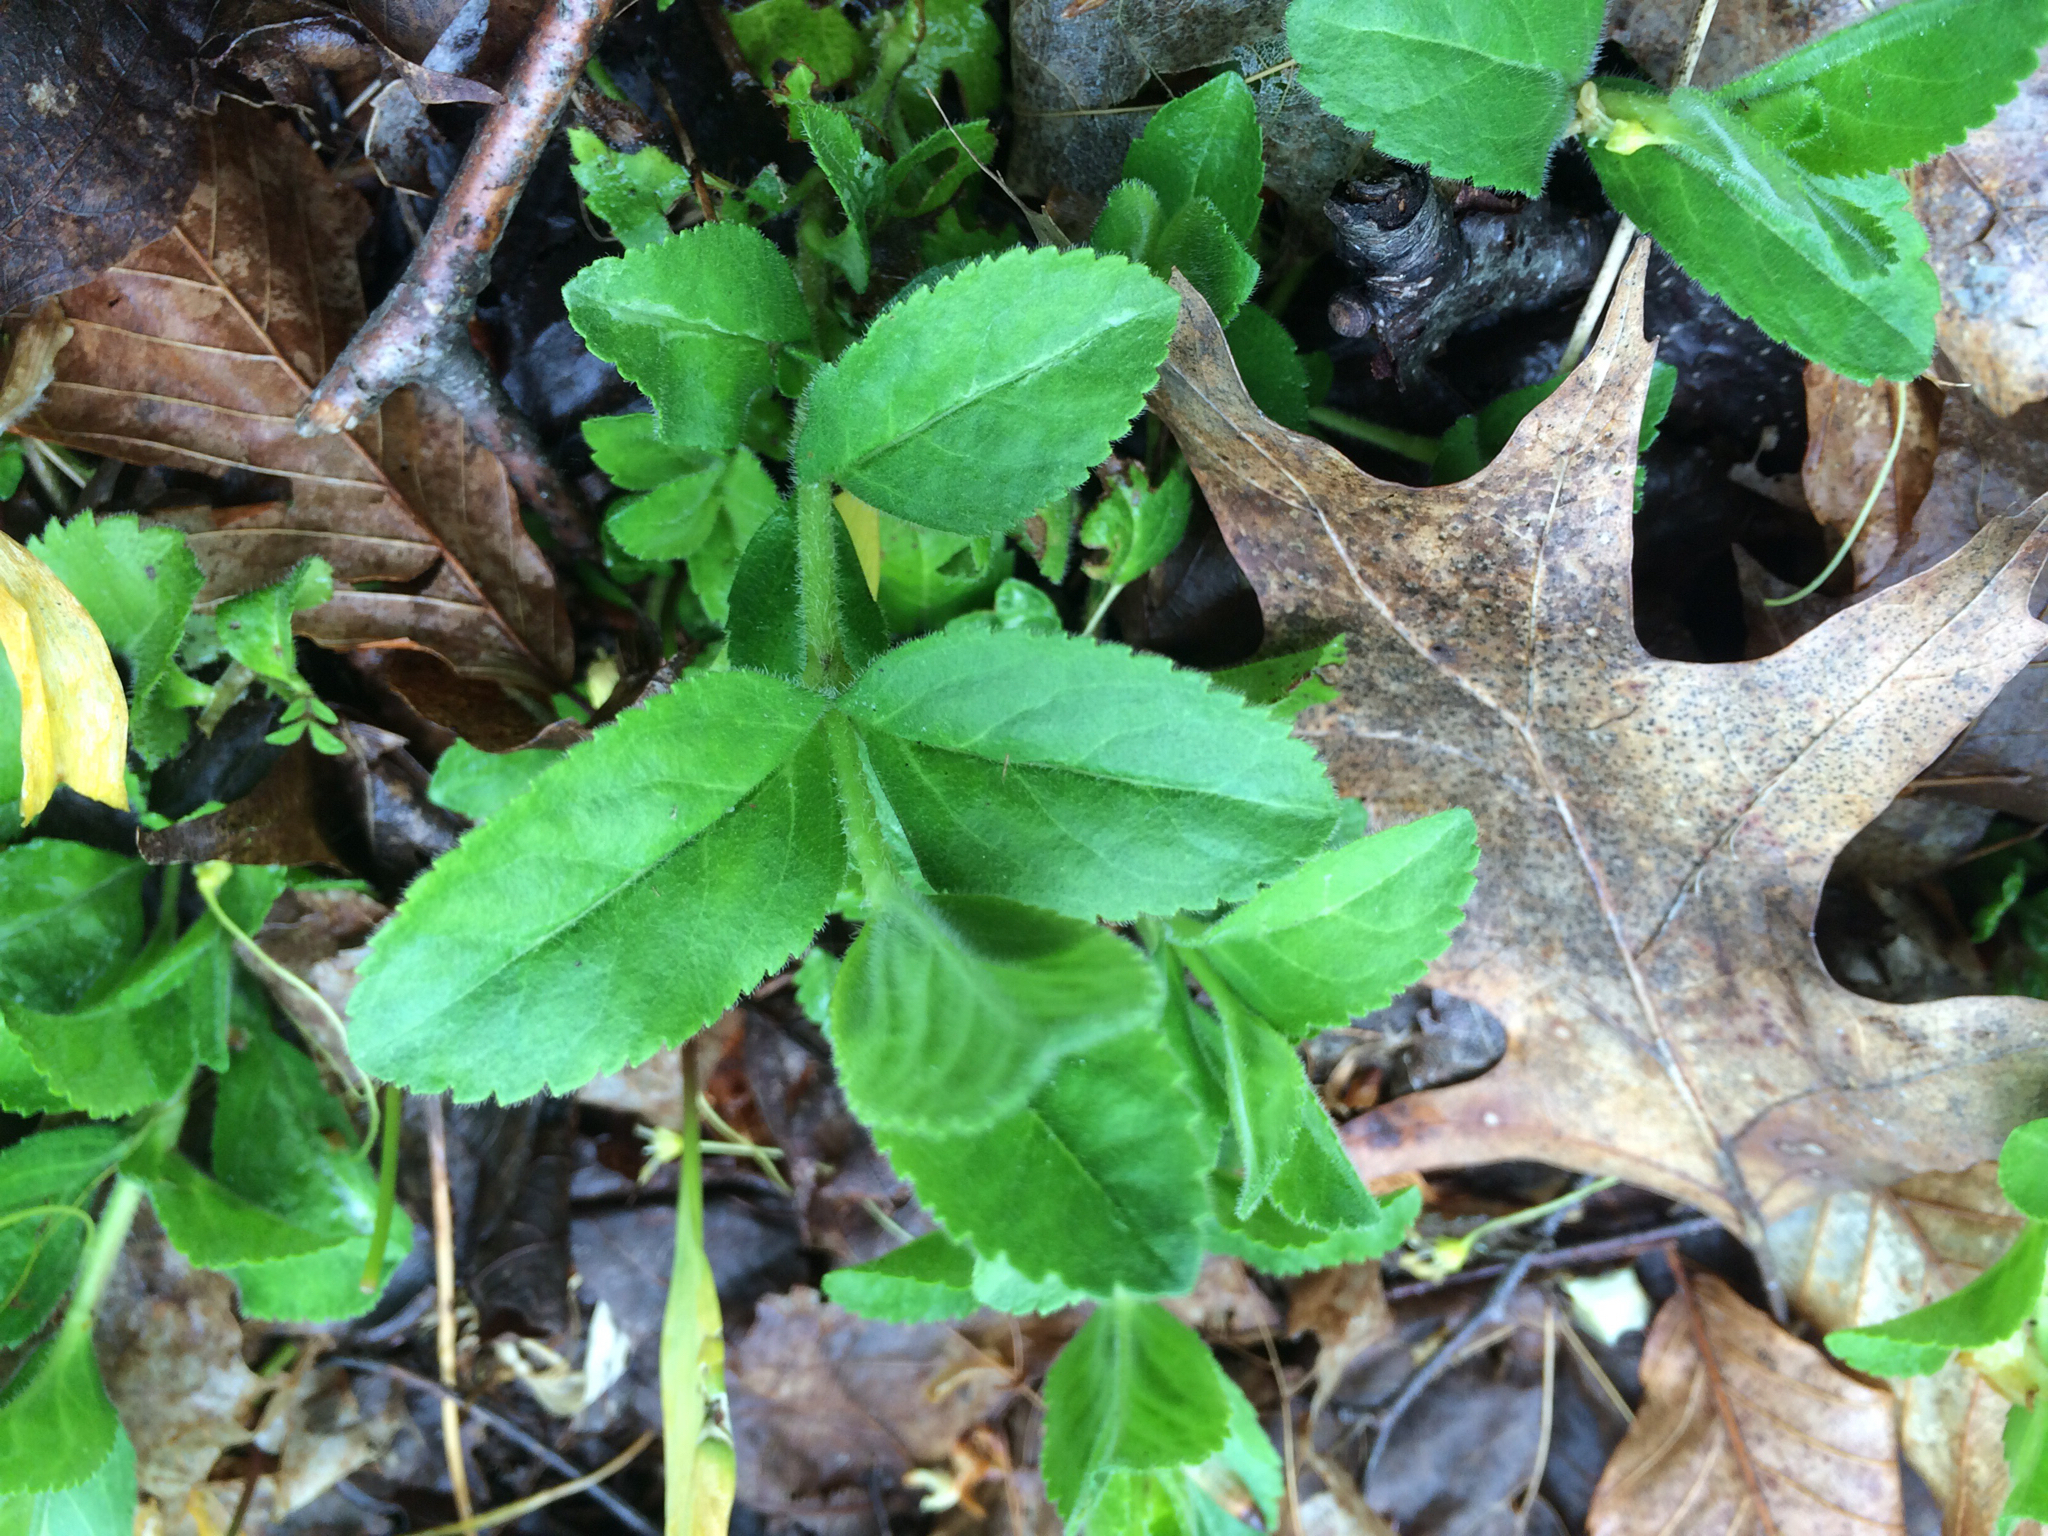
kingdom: Plantae
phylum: Tracheophyta
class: Magnoliopsida
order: Lamiales
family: Plantaginaceae
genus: Veronica
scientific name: Veronica officinalis
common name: Common speedwell
